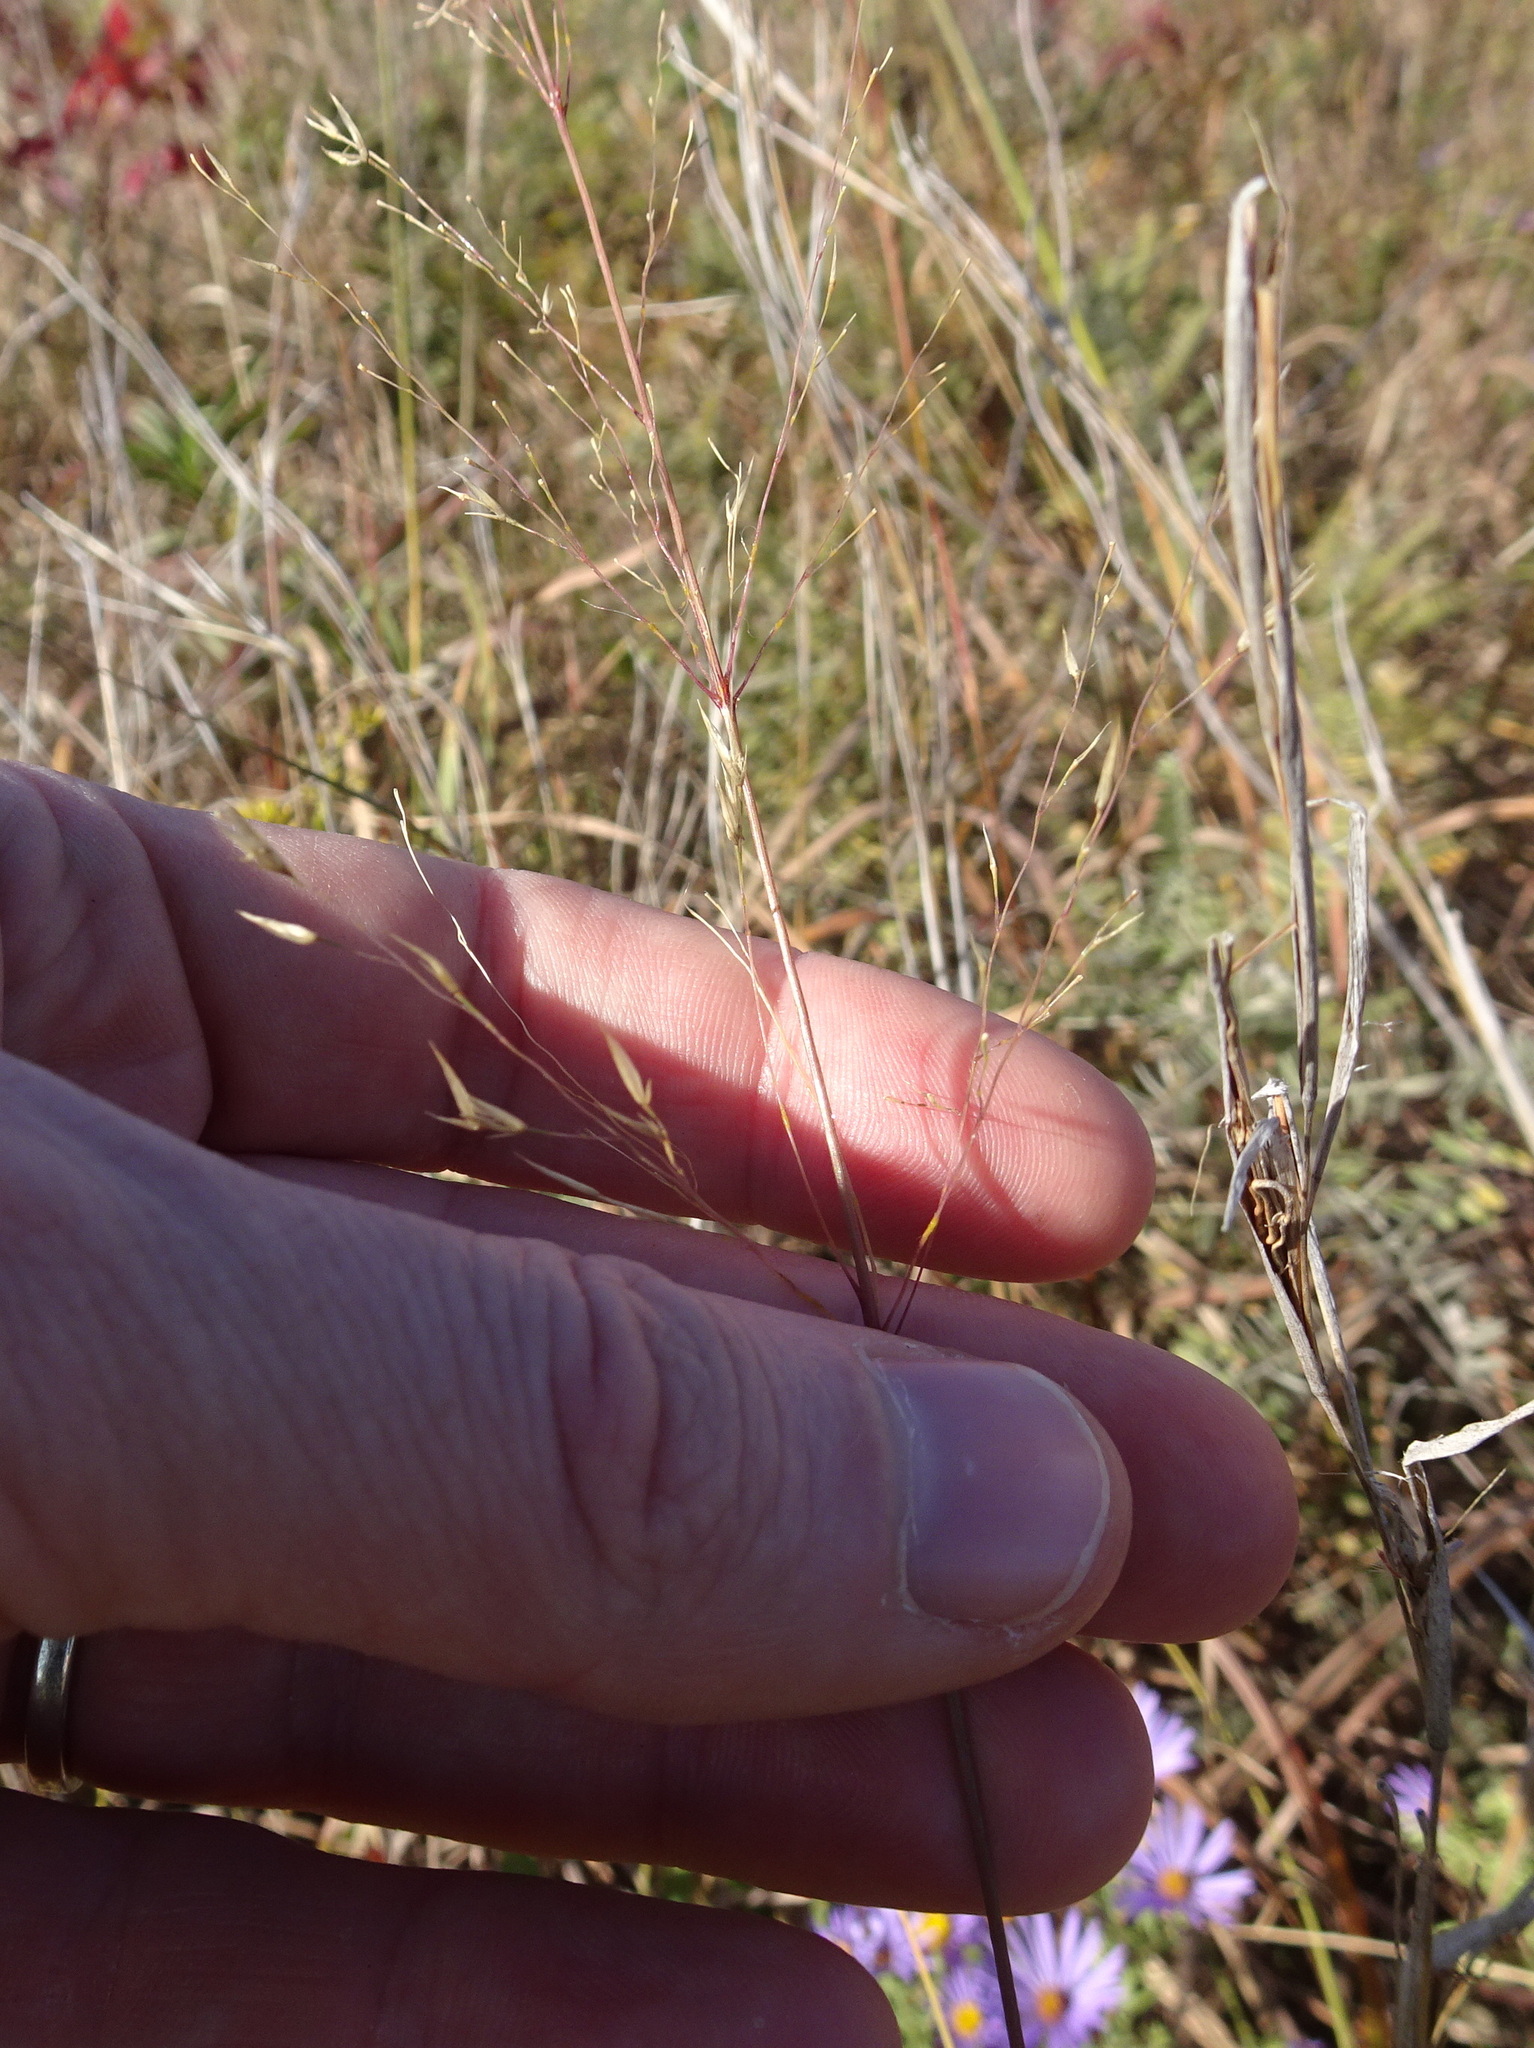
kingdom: Plantae
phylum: Tracheophyta
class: Liliopsida
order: Poales
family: Poaceae
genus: Sporobolus
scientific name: Sporobolus heterolepis
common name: Prairie dropseed
